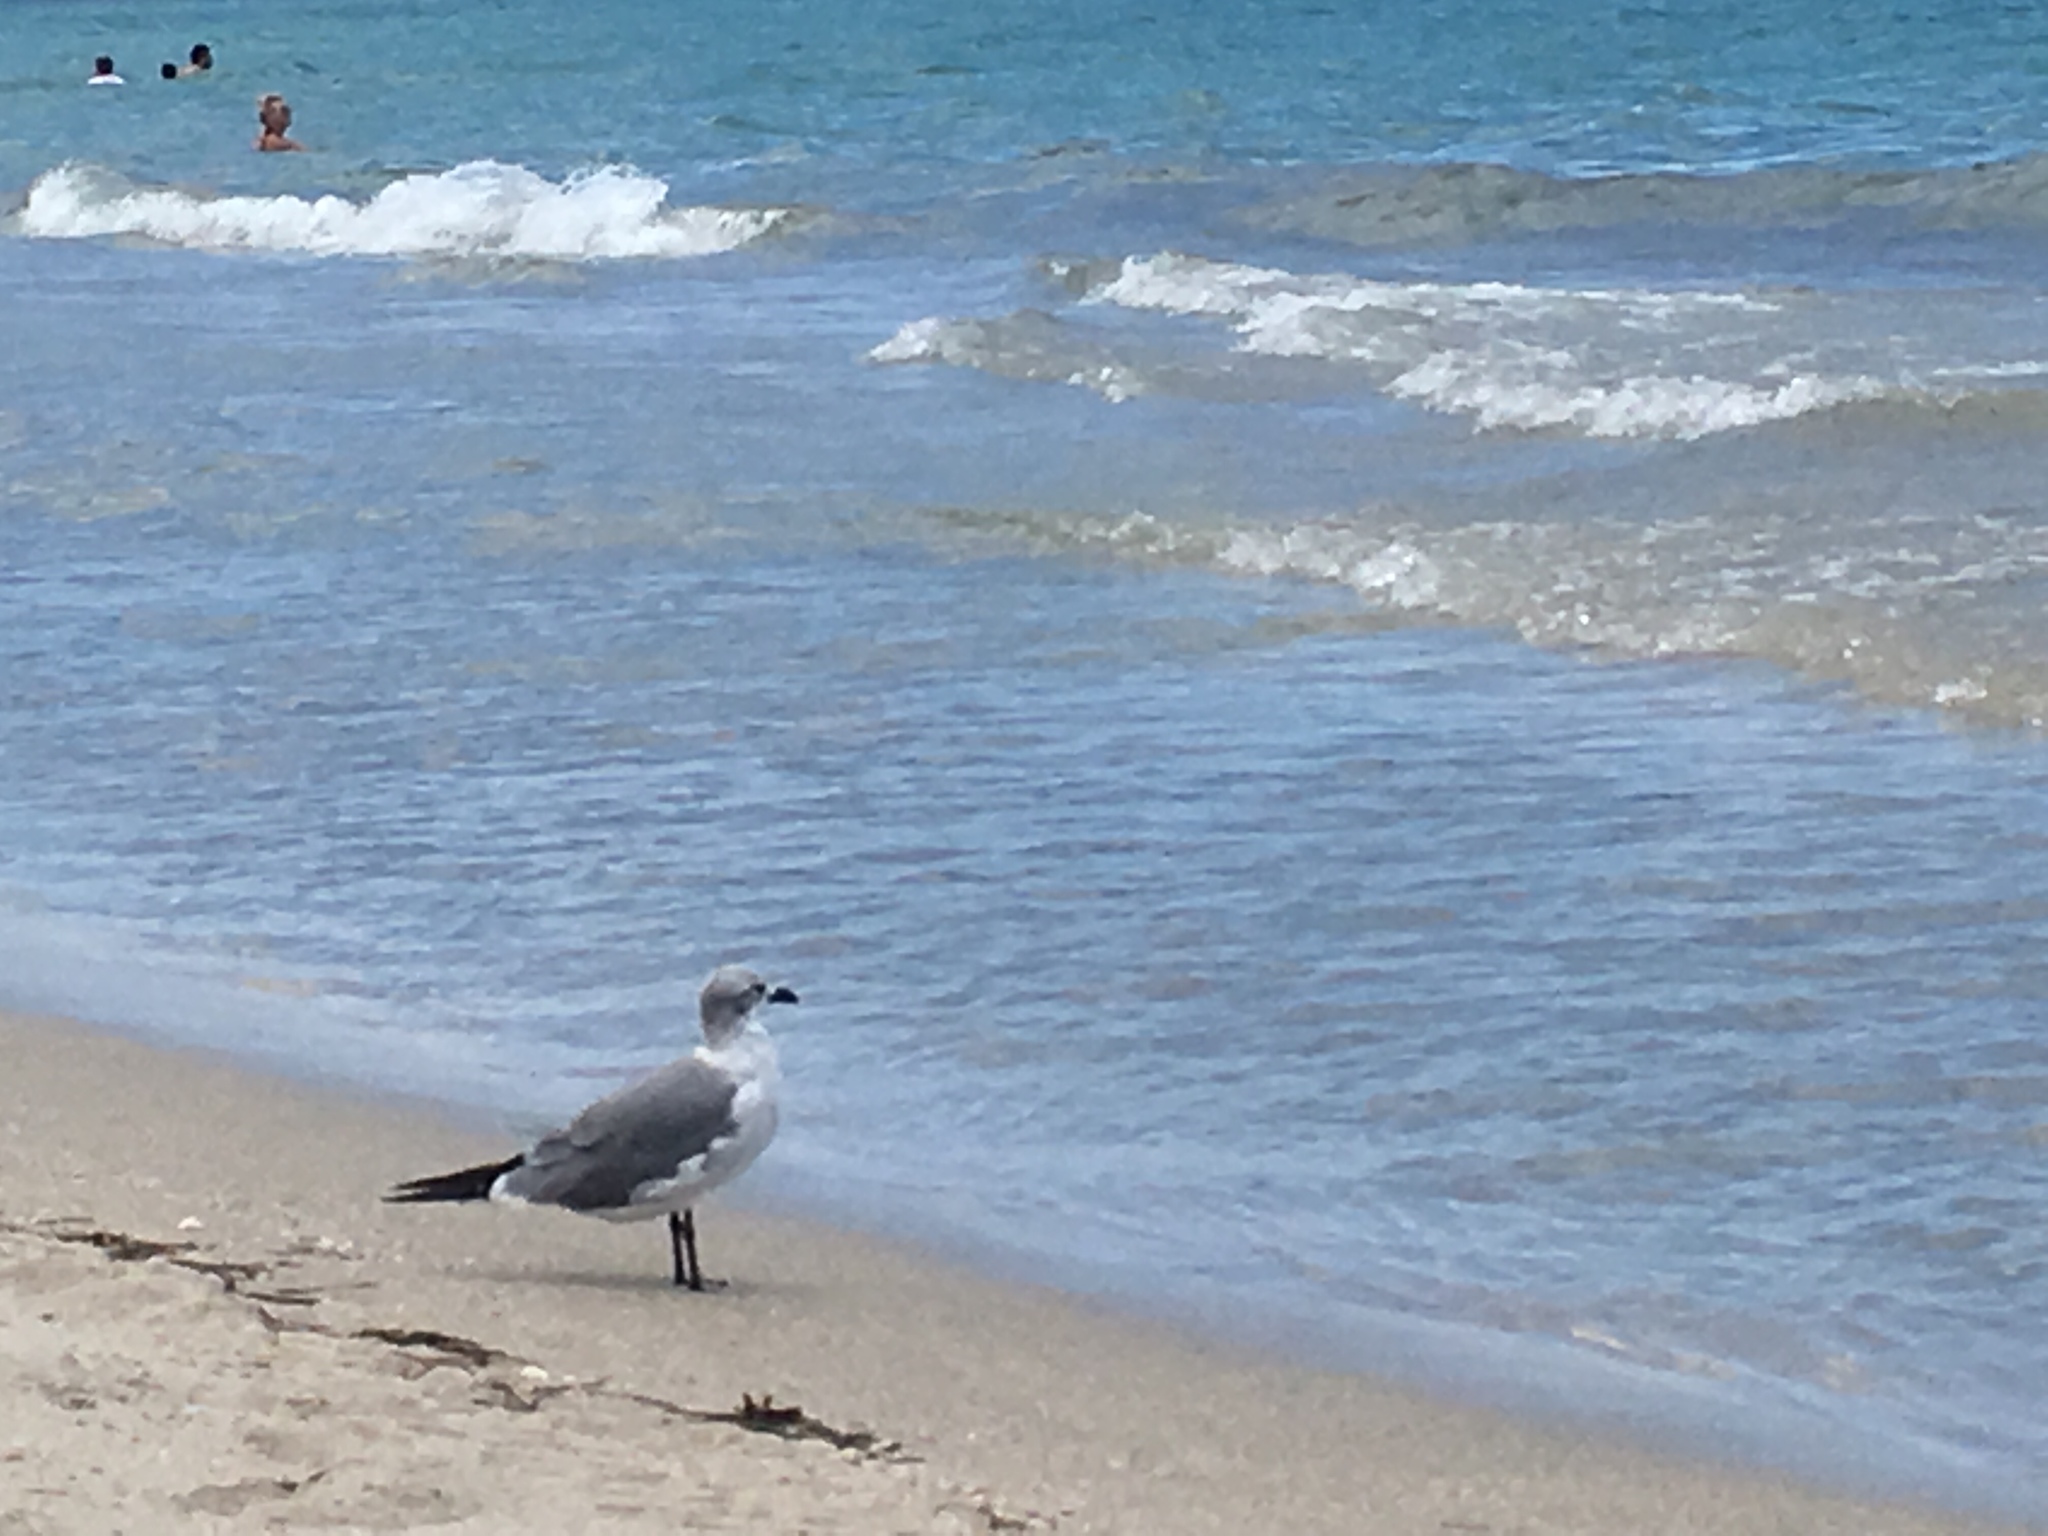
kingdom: Animalia
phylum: Chordata
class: Aves
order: Charadriiformes
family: Laridae
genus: Leucophaeus
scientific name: Leucophaeus atricilla
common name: Laughing gull
